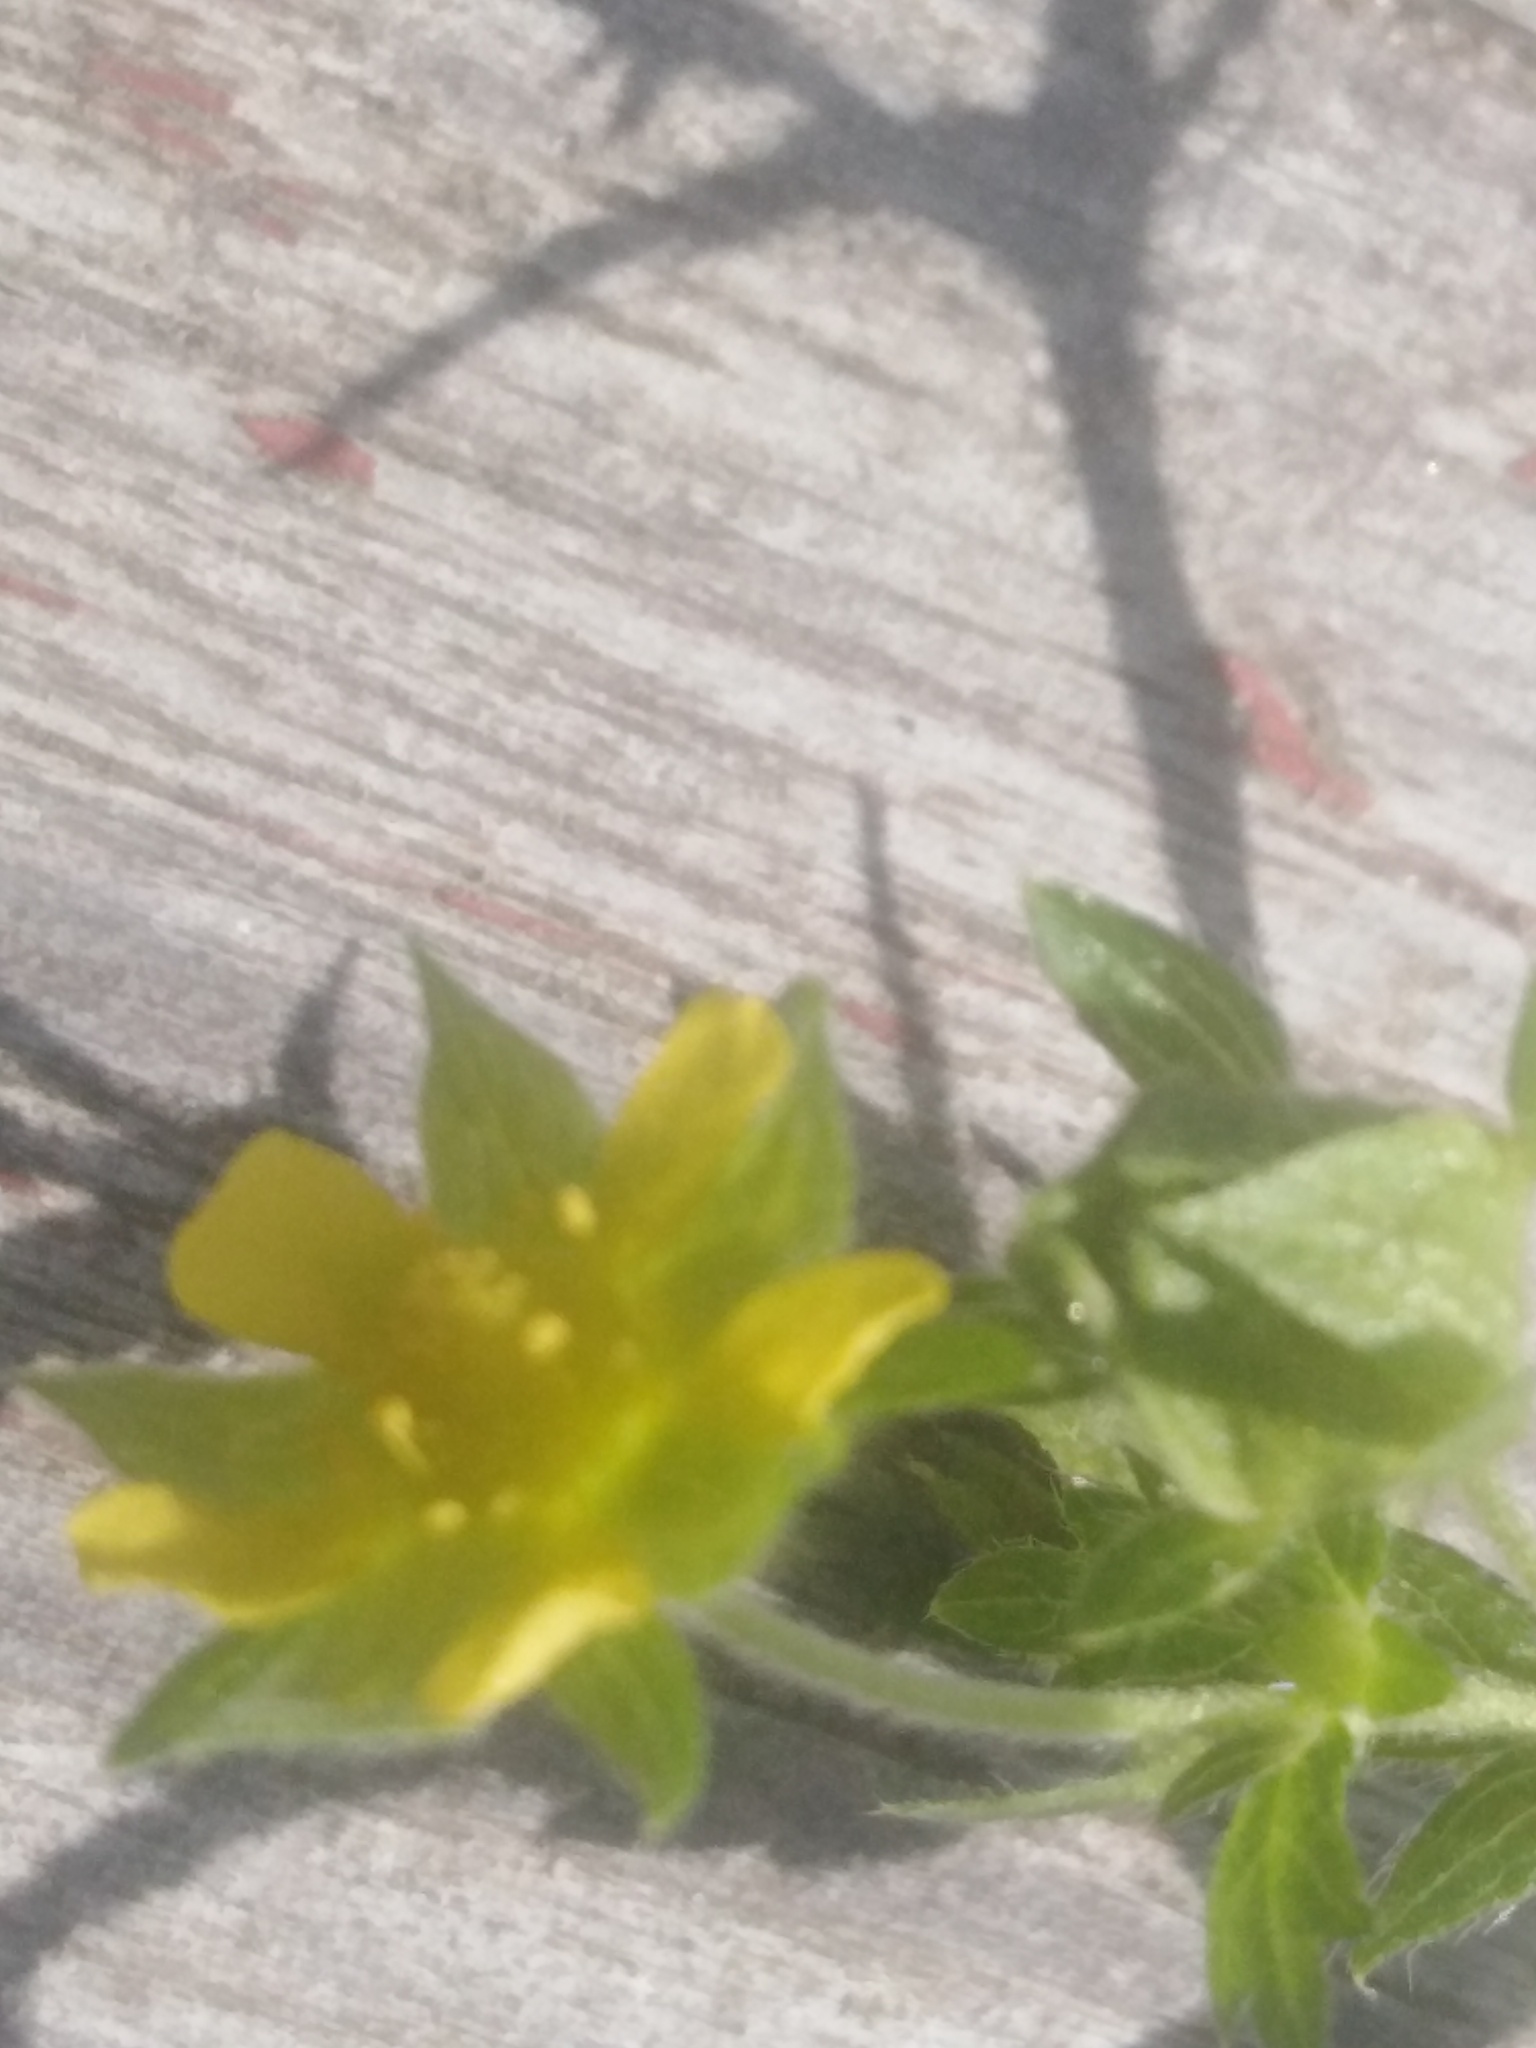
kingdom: Plantae
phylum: Tracheophyta
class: Magnoliopsida
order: Rosales
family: Rosaceae
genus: Potentilla
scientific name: Potentilla norvegica
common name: Ternate-leaved cinquefoil
